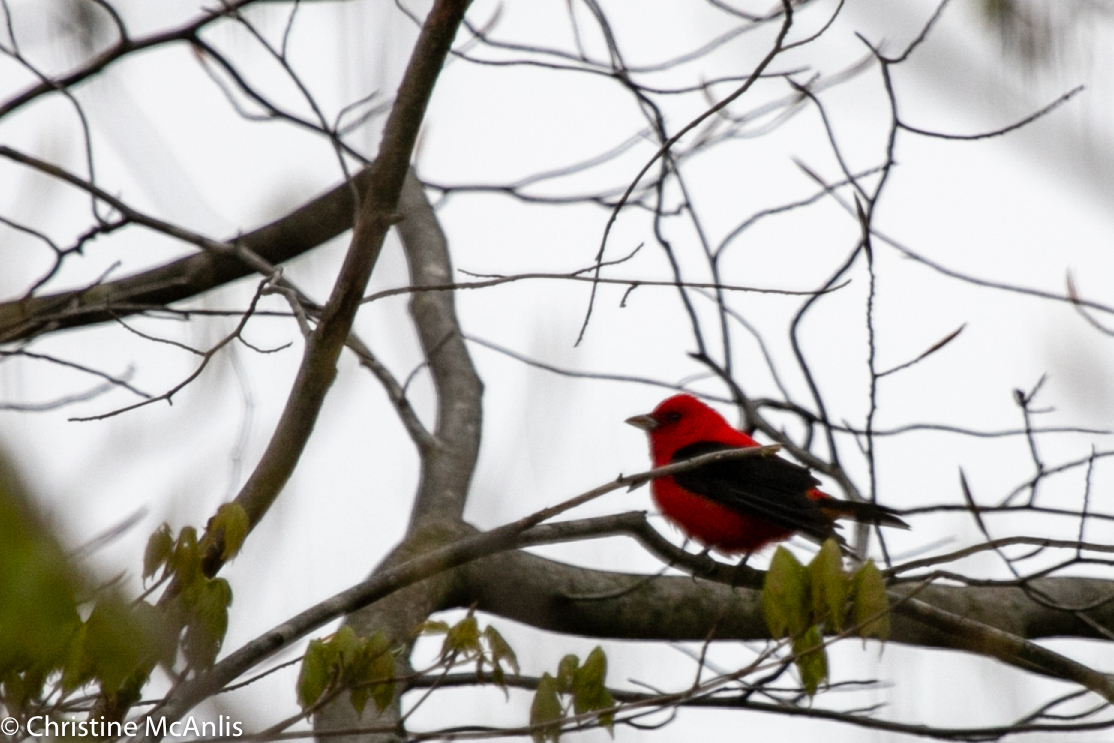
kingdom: Animalia
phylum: Chordata
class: Aves
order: Passeriformes
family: Cardinalidae
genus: Piranga
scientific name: Piranga olivacea
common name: Scarlet tanager
